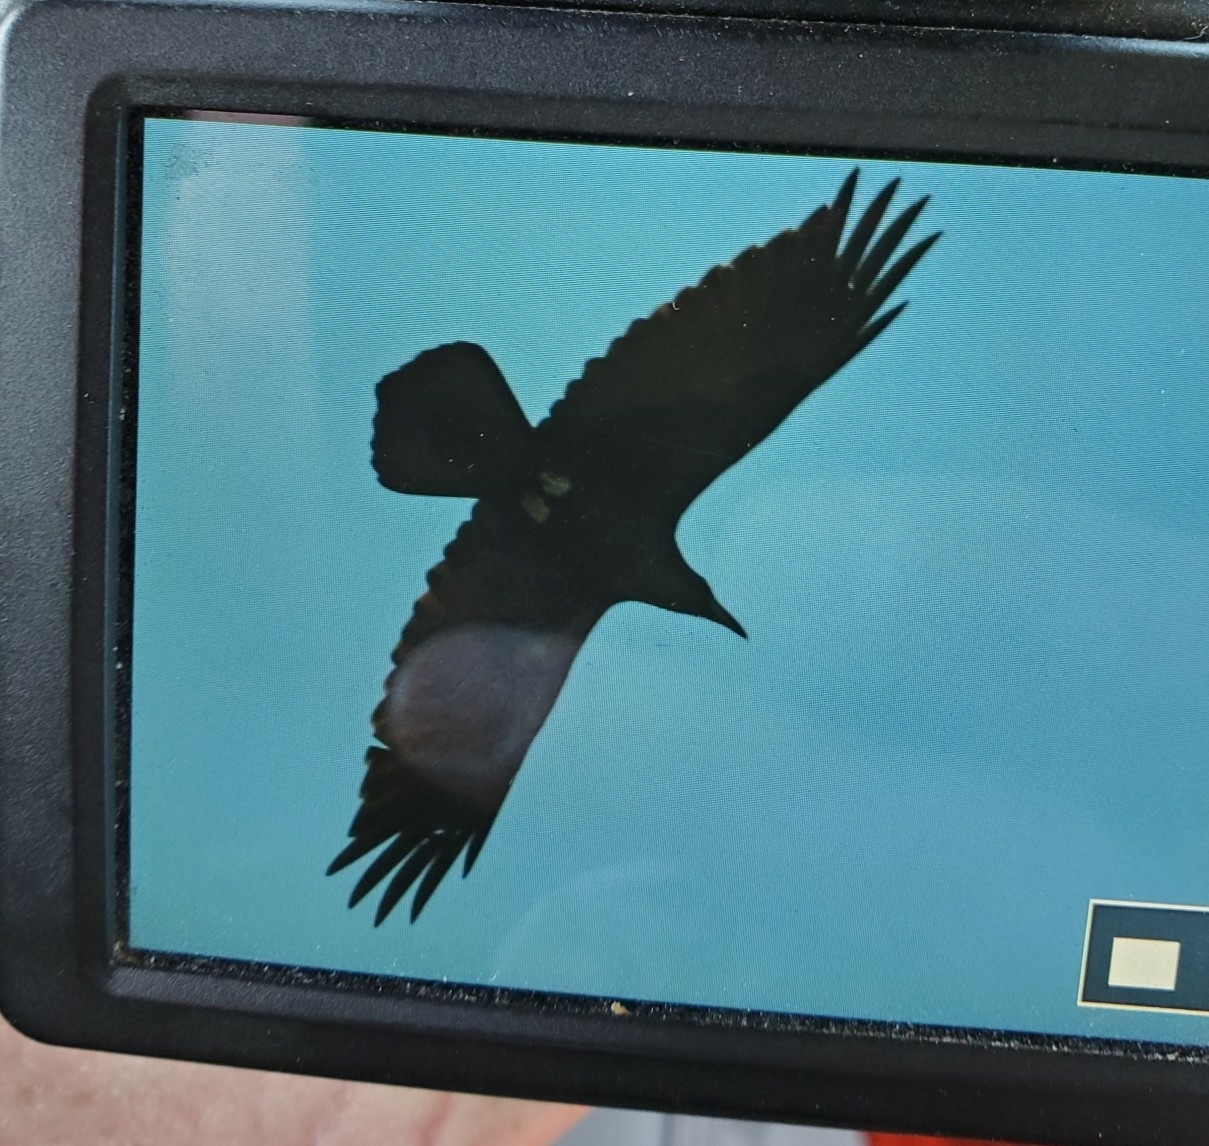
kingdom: Animalia
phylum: Chordata
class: Aves
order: Passeriformes
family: Corvidae
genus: Corvus
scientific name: Corvus corax
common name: Common raven
